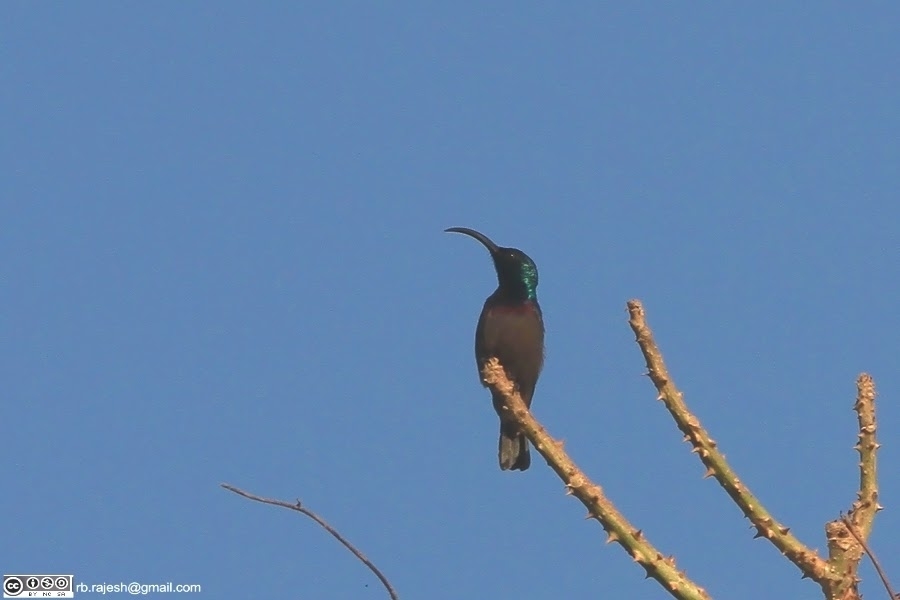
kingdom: Animalia
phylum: Chordata
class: Aves
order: Passeriformes
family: Nectariniidae
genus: Cinnyris
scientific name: Cinnyris lotenius
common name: Loten's sunbird
